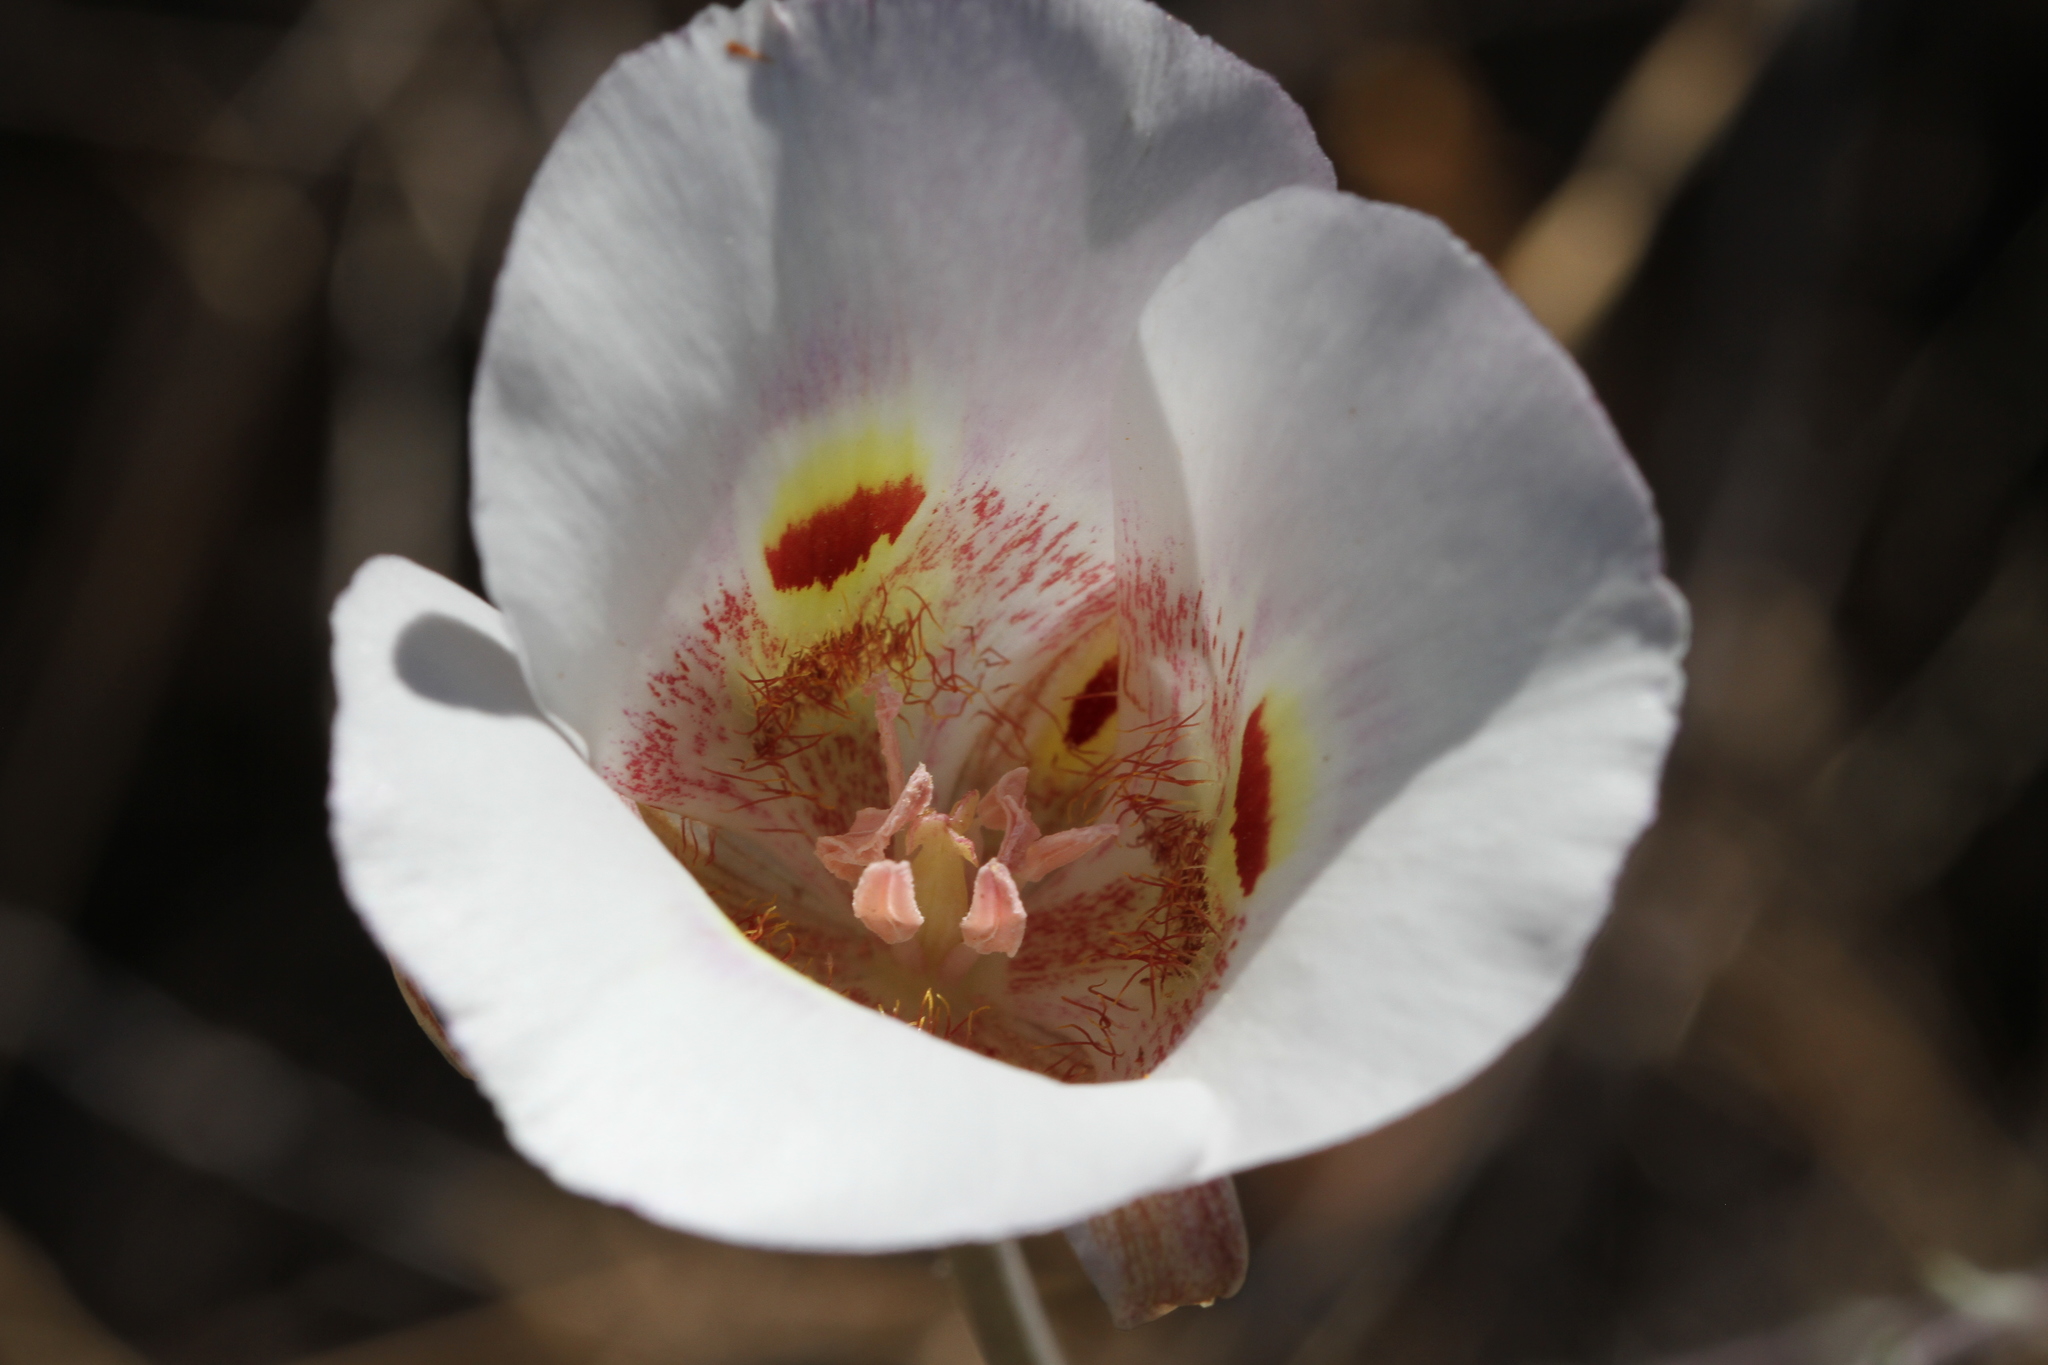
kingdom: Plantae
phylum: Tracheophyta
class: Liliopsida
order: Liliales
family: Liliaceae
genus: Calochortus
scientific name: Calochortus argillosus
